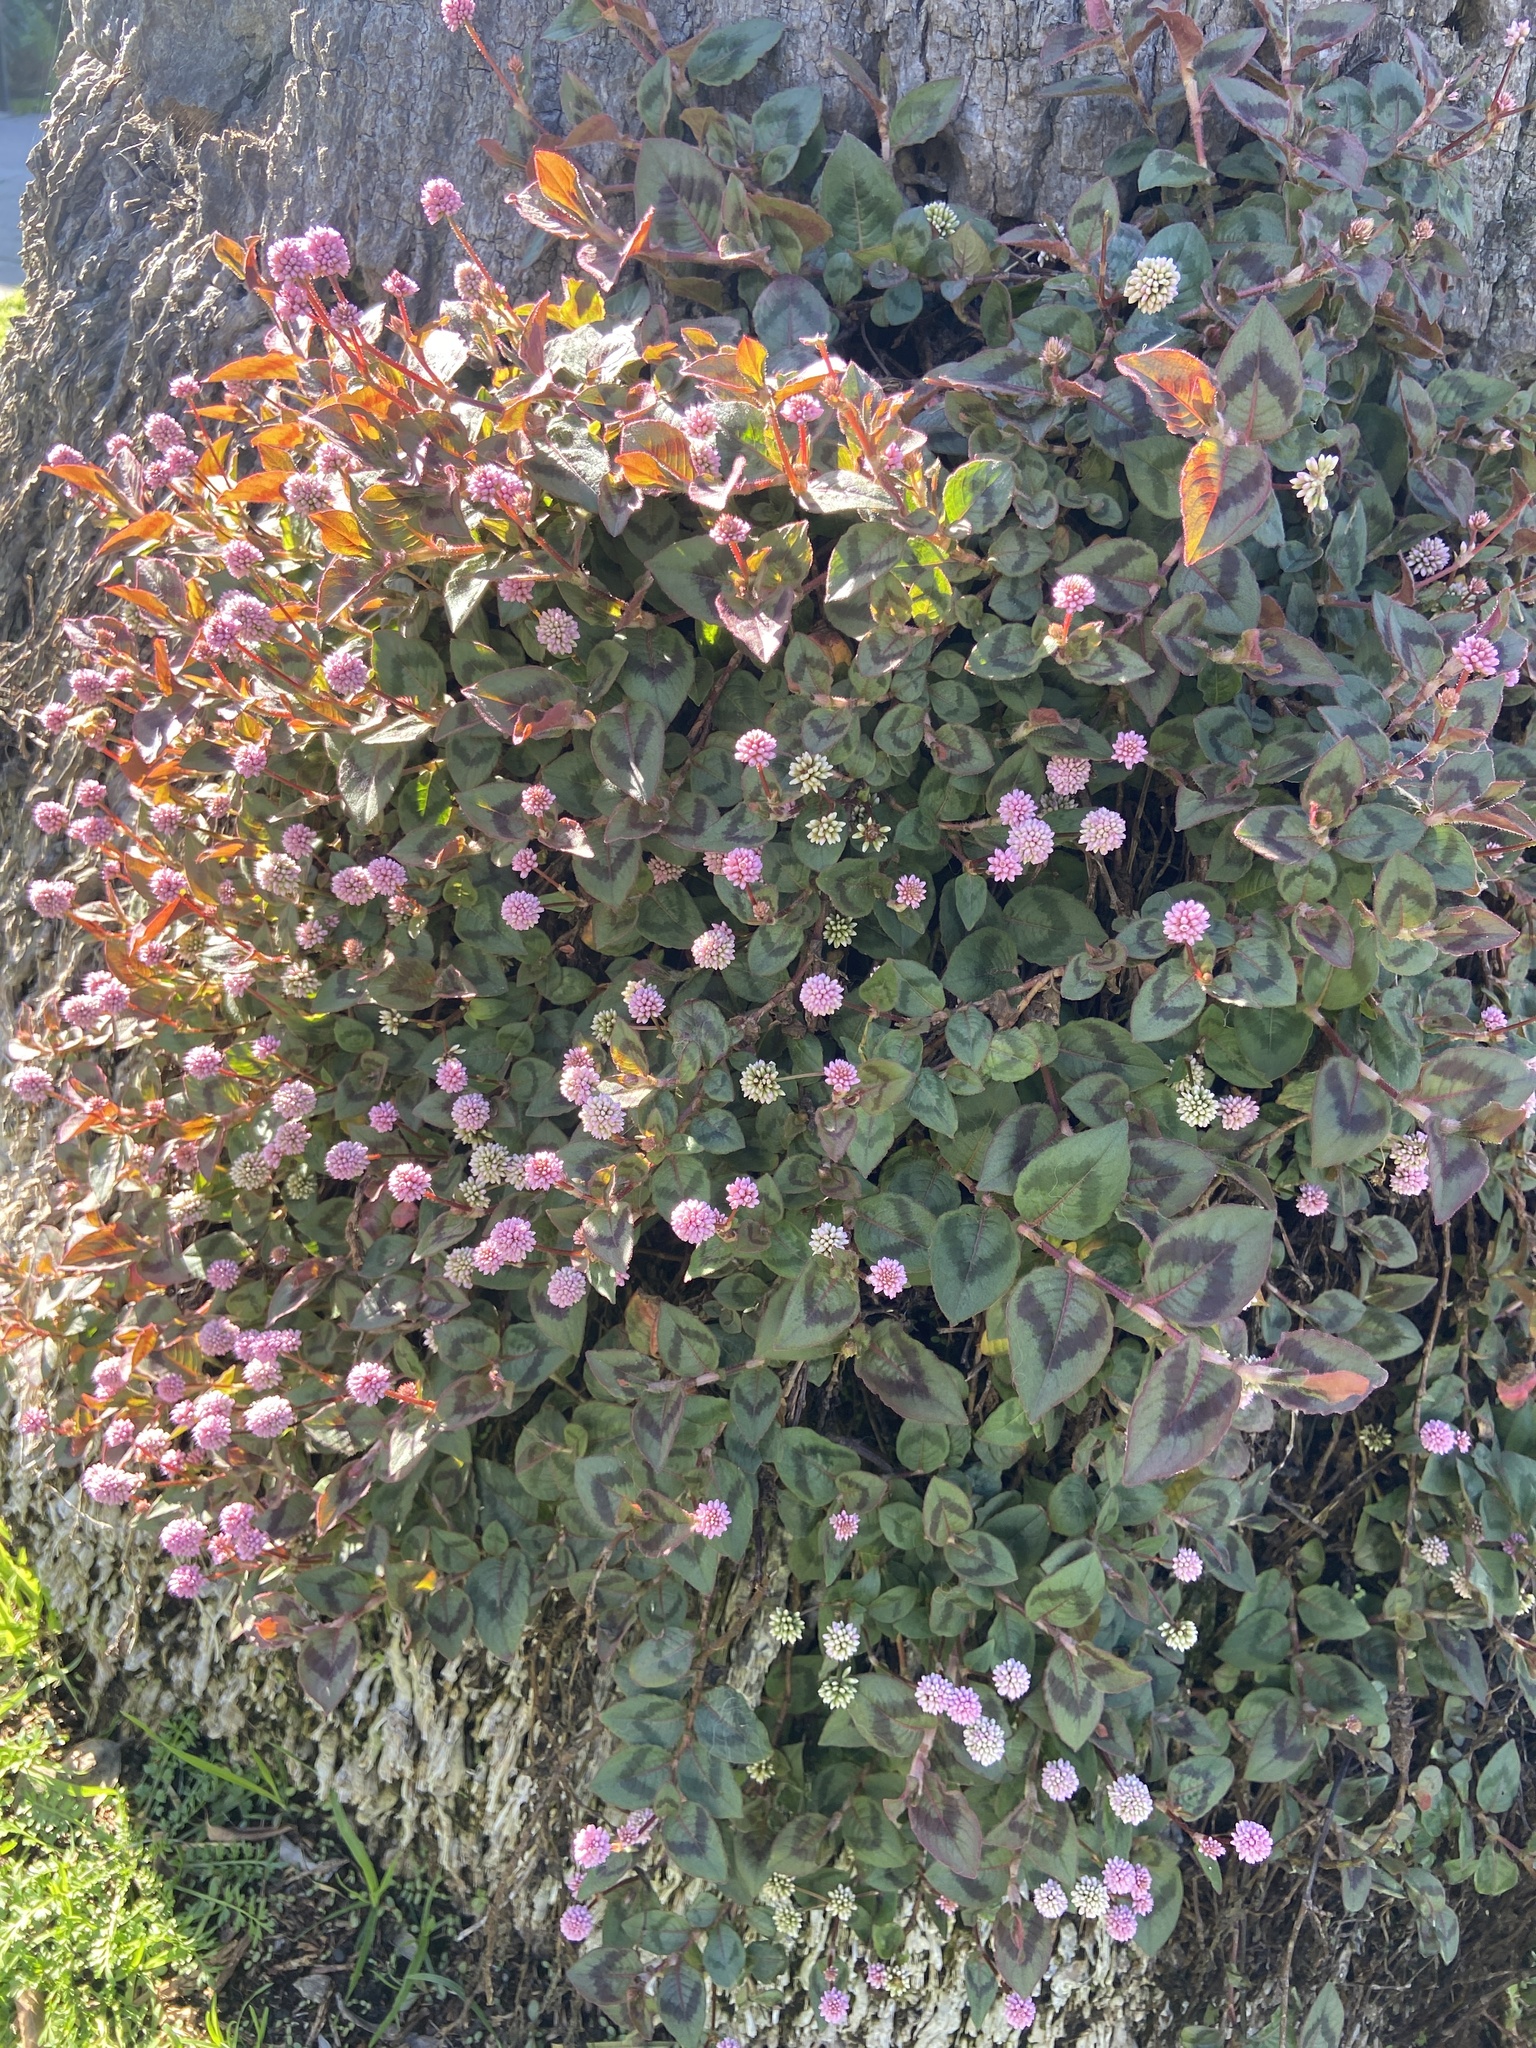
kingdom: Plantae
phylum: Tracheophyta
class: Magnoliopsida
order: Caryophyllales
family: Polygonaceae
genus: Persicaria
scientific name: Persicaria capitata
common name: Pinkhead smartweed
